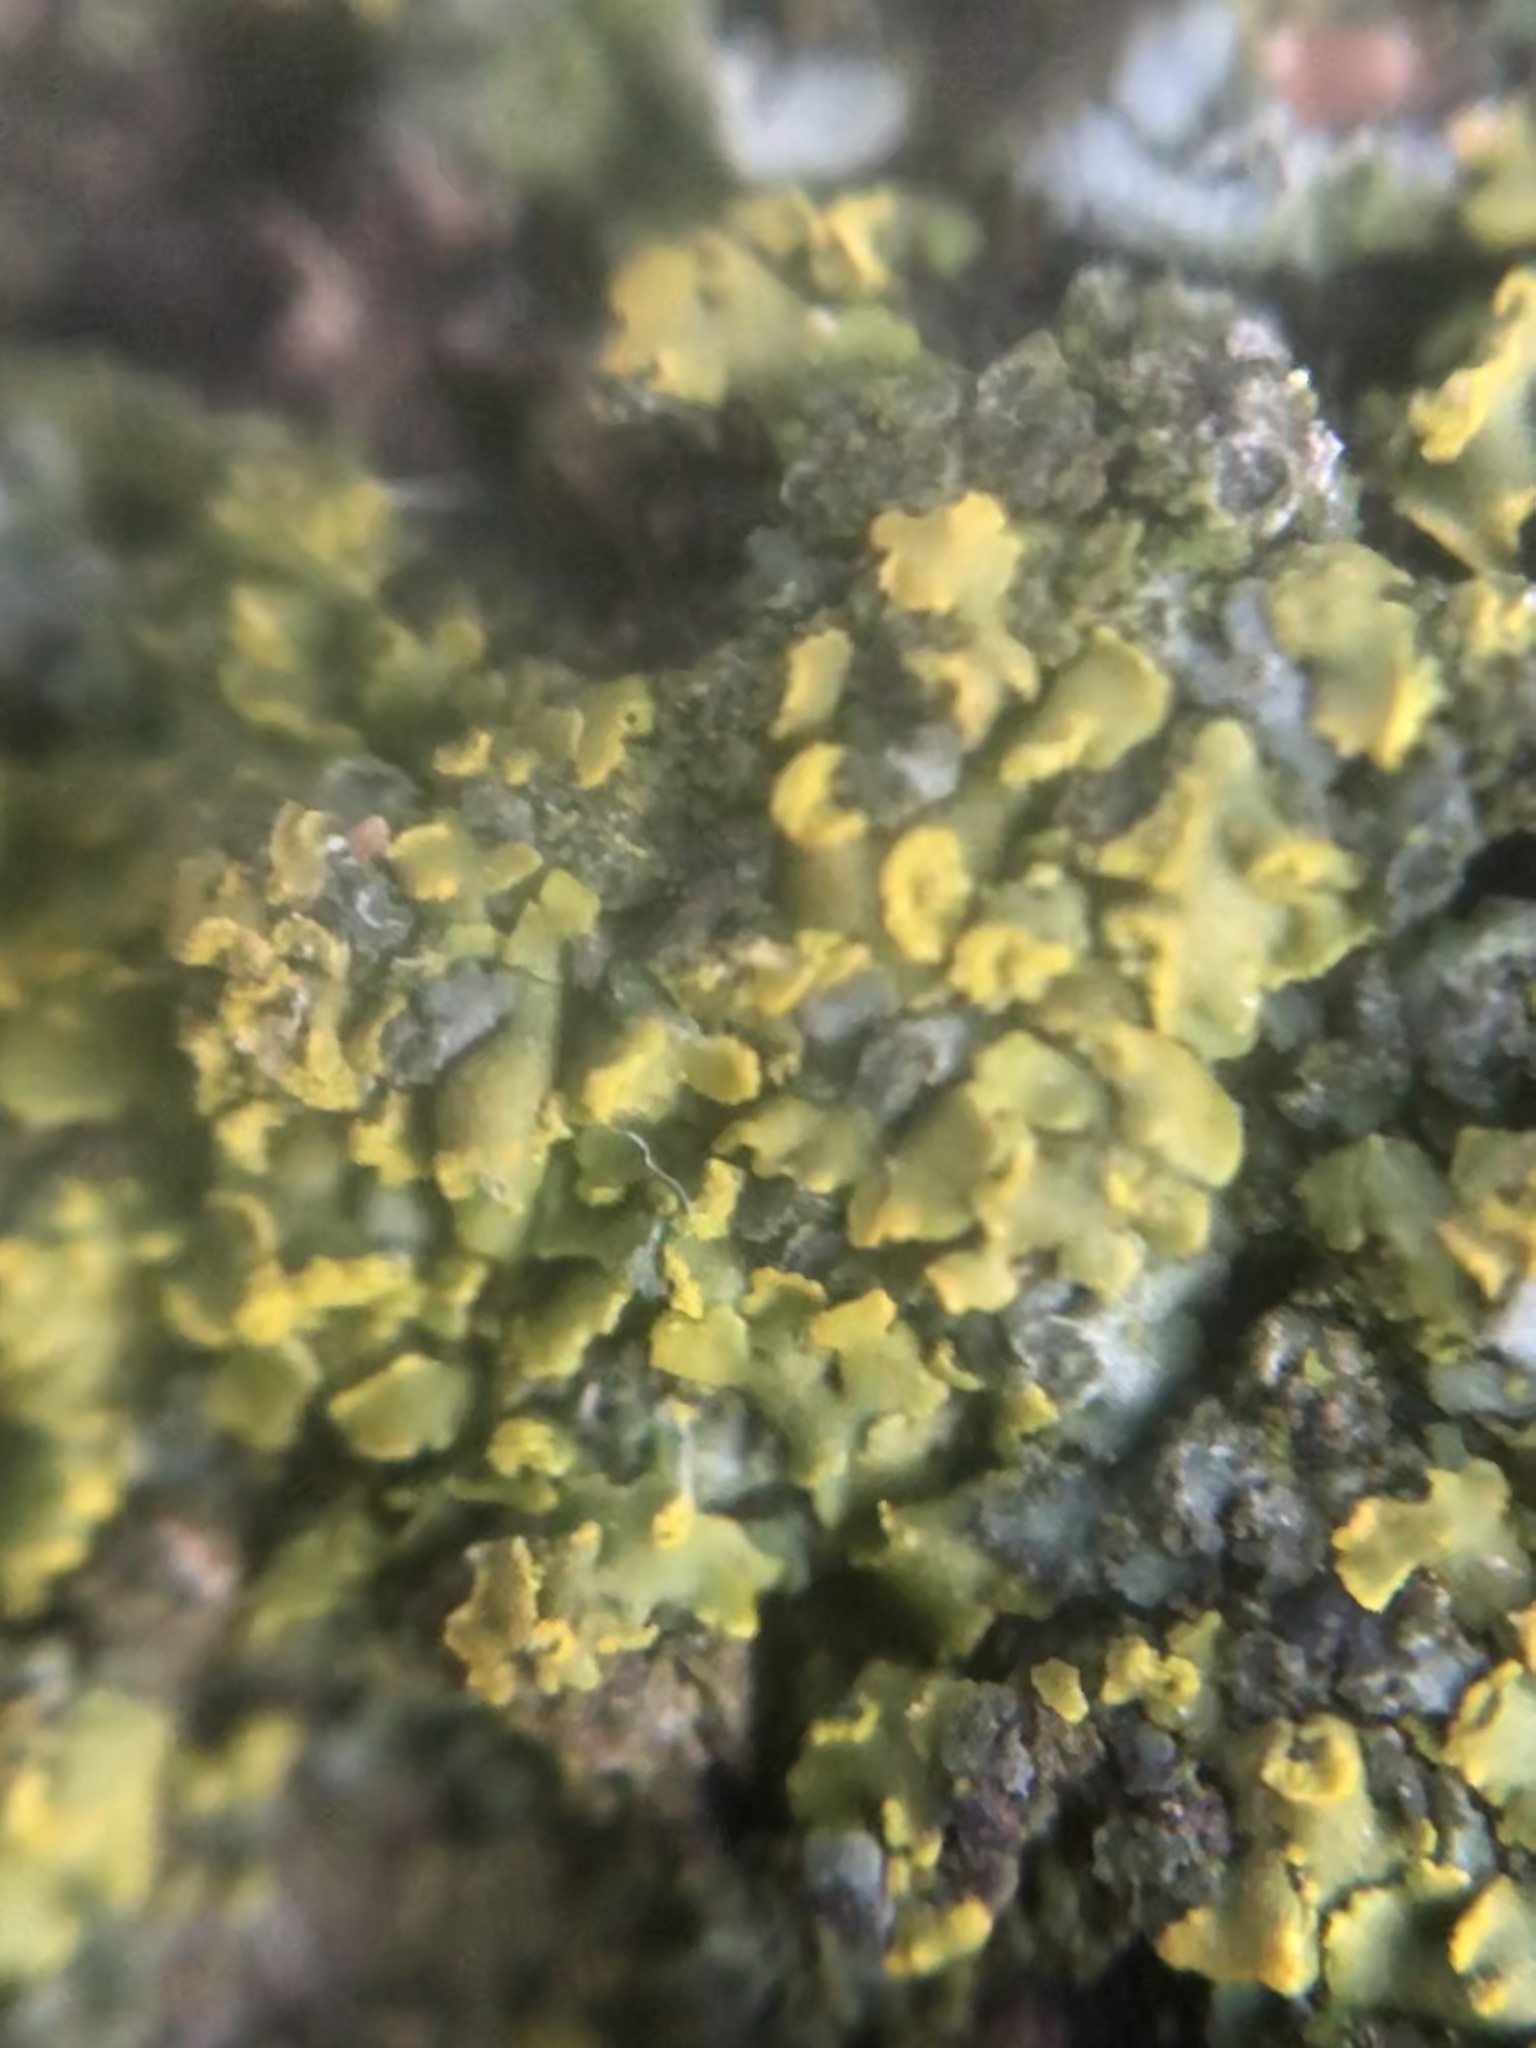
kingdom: Fungi
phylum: Ascomycota
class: Lecanoromycetes
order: Teloschistales
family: Teloschistaceae
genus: Oxneria
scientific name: Oxneria fallax
